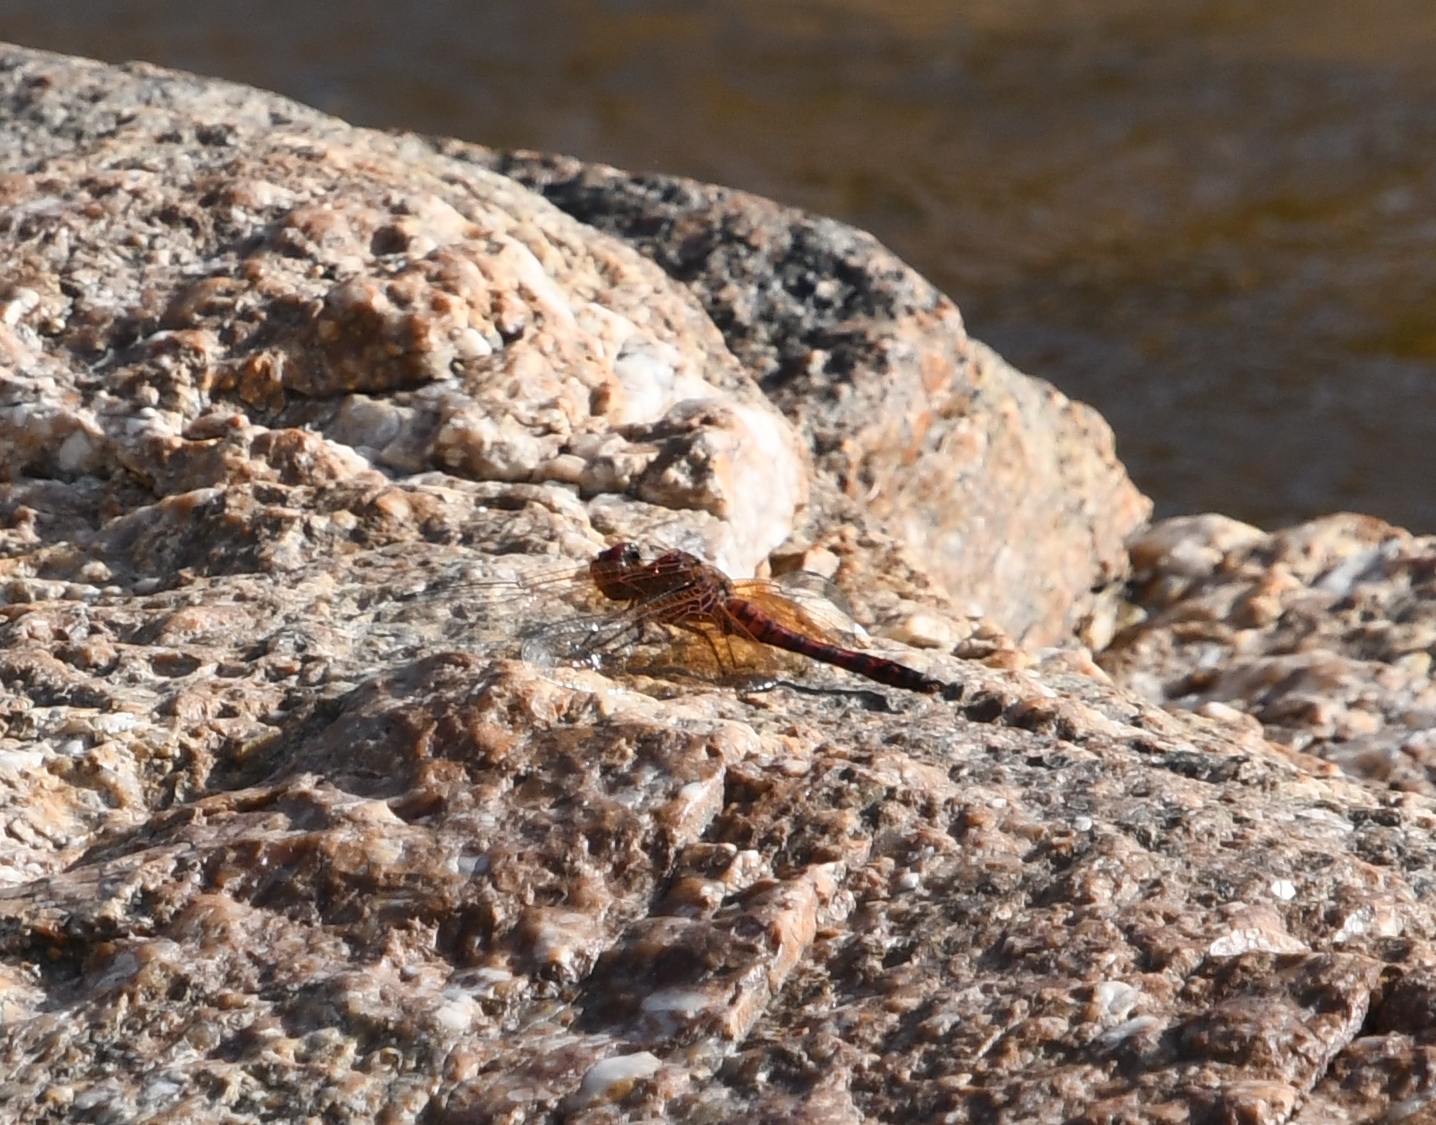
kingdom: Animalia
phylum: Arthropoda
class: Insecta
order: Odonata
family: Libellulidae
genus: Paltothemis
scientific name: Paltothemis lineatipes
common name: Red rock skimmer
